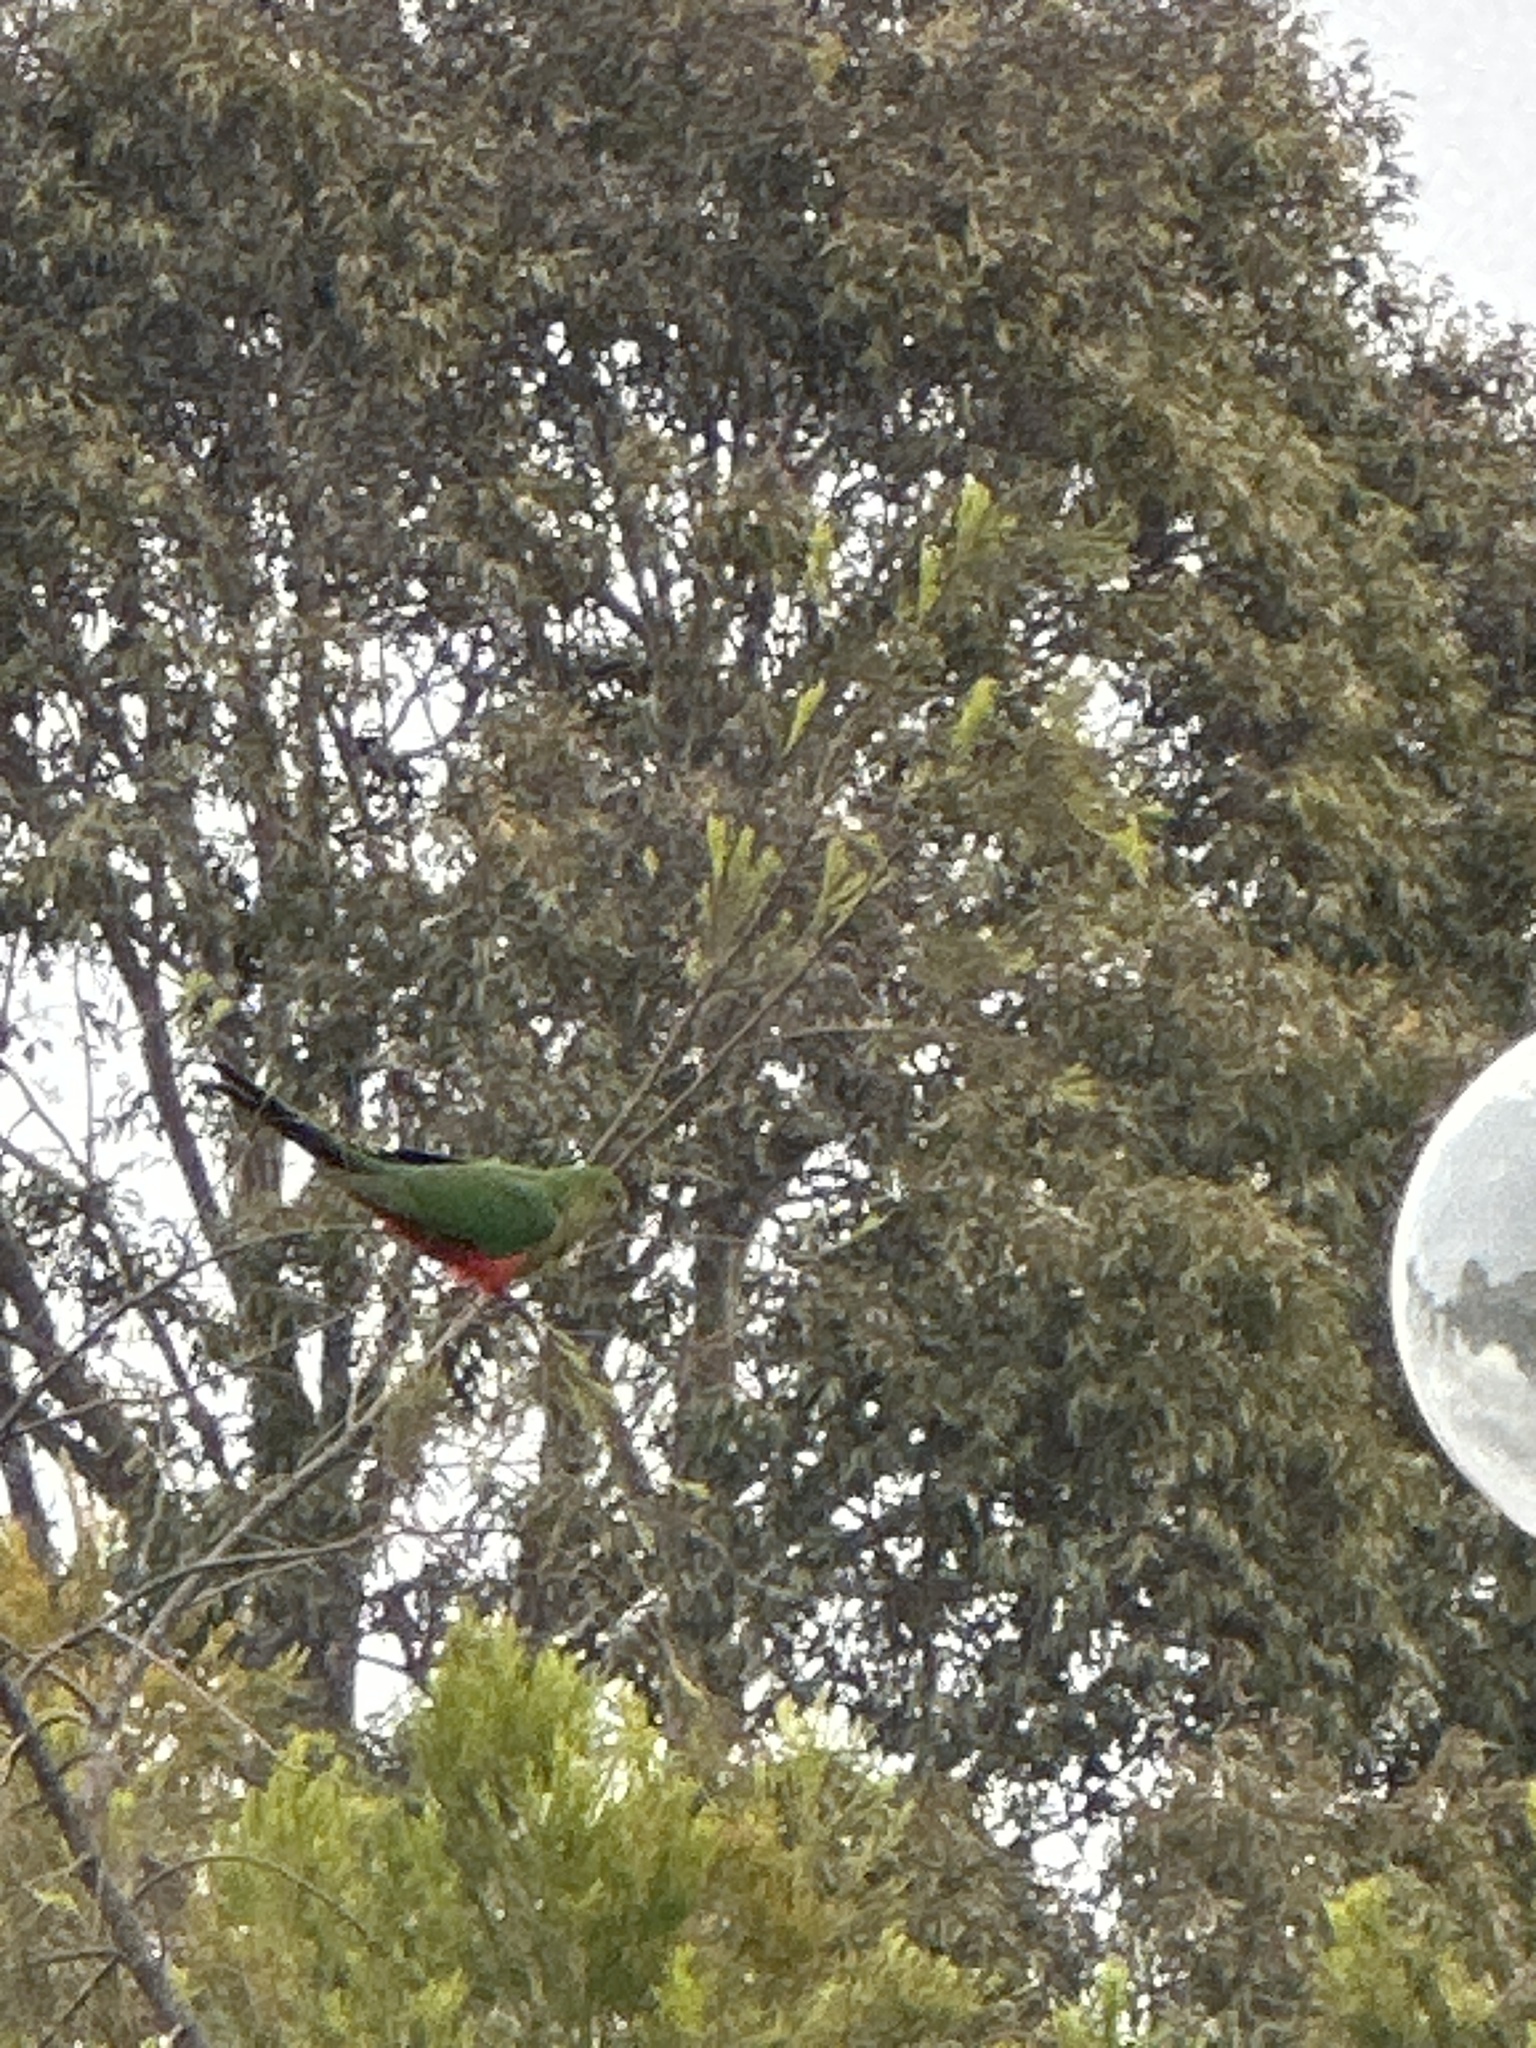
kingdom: Animalia
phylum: Chordata
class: Aves
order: Psittaciformes
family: Psittacidae
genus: Alisterus
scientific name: Alisterus scapularis
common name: Australian king parrot
